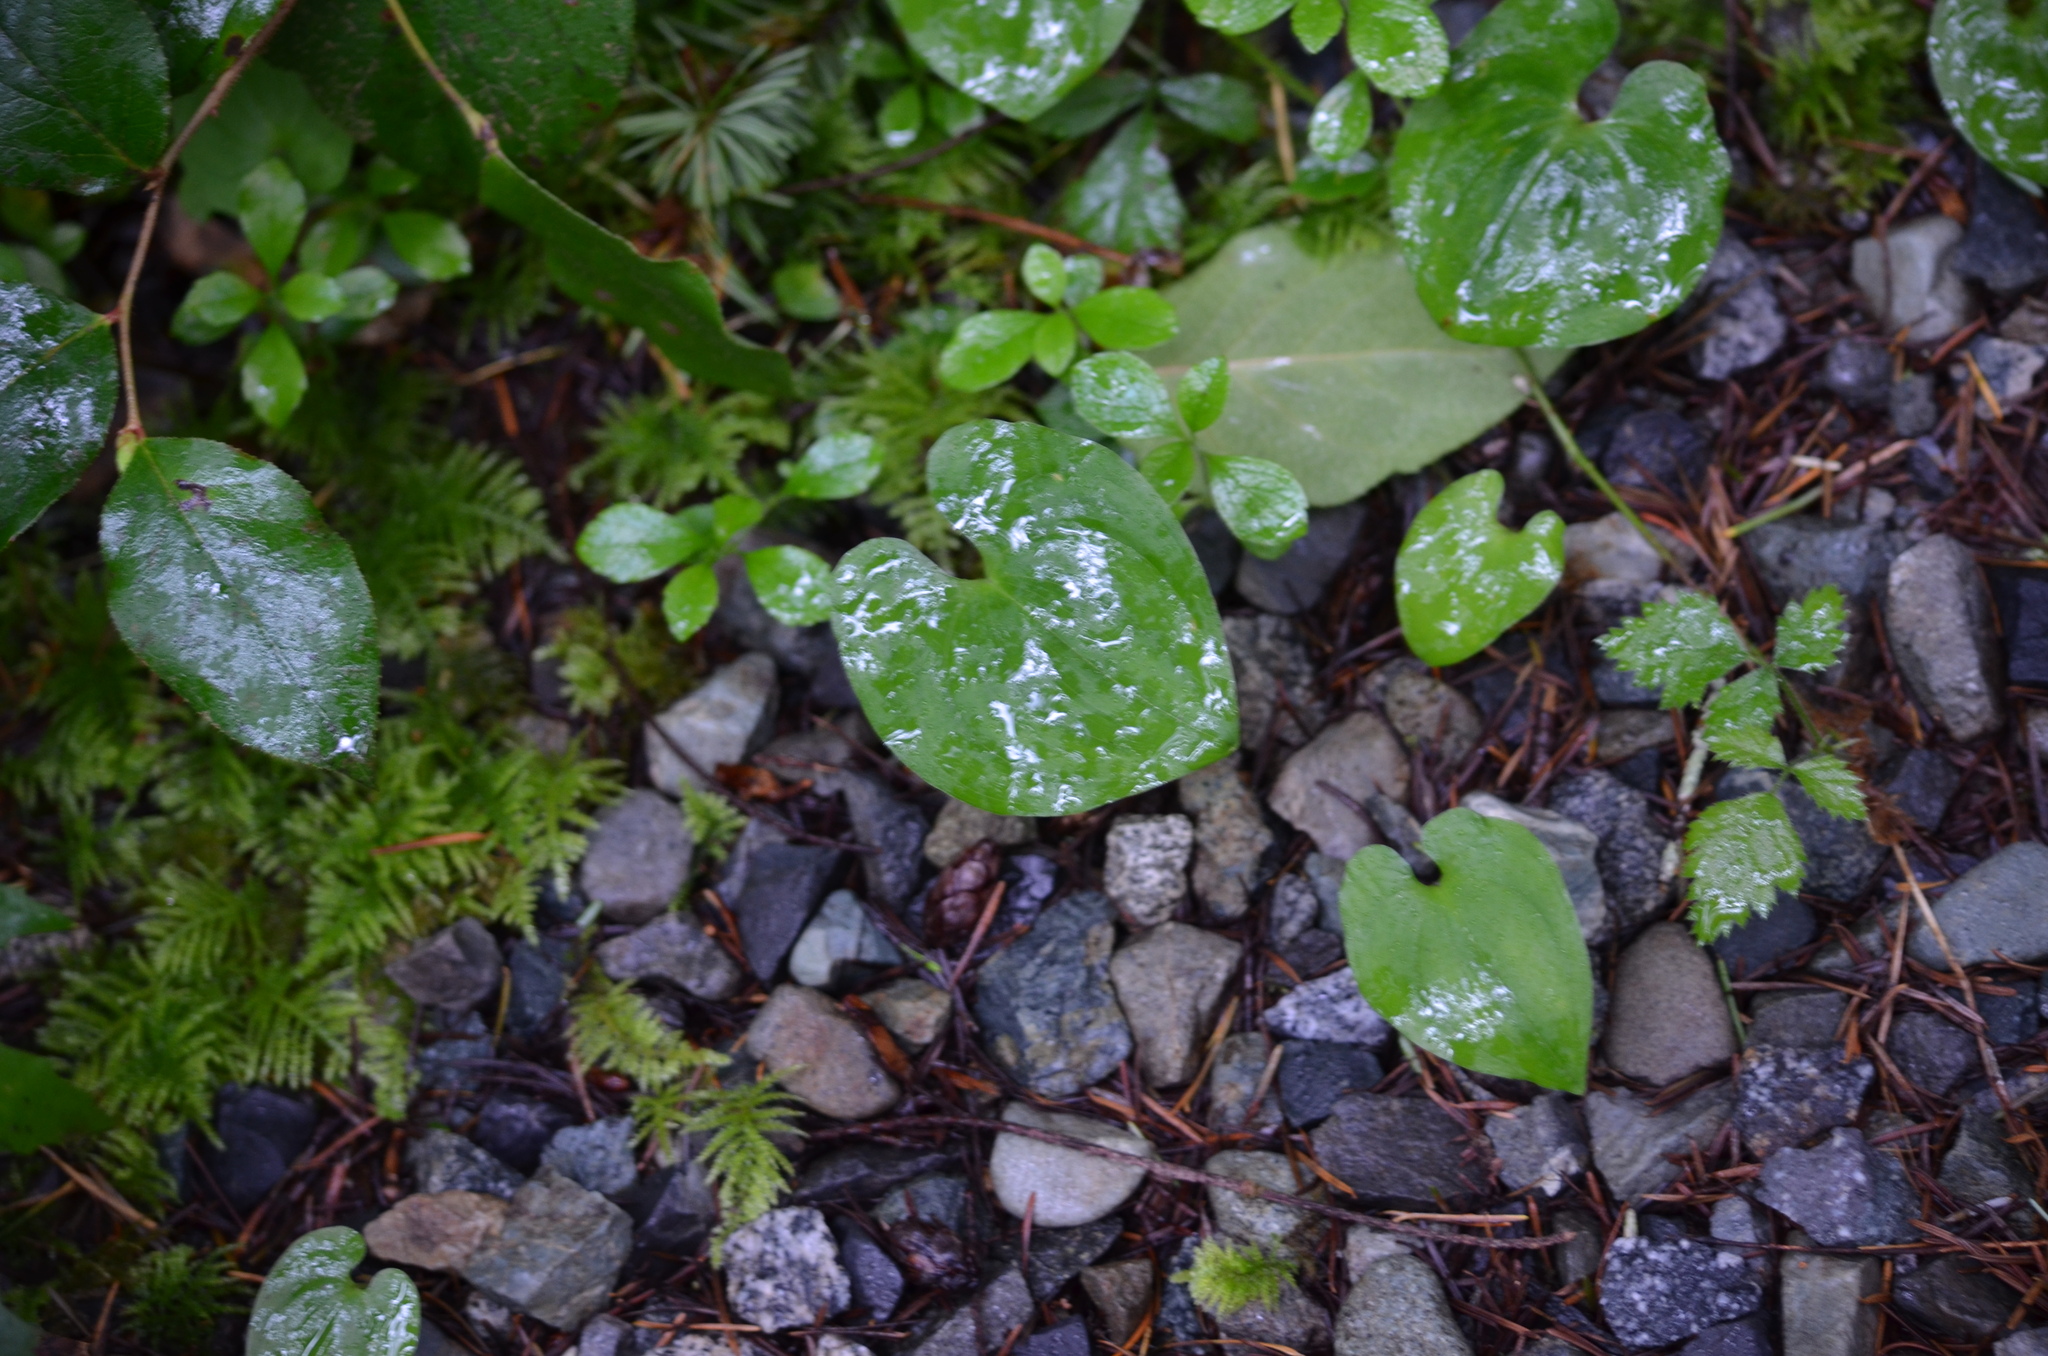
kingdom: Plantae
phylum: Tracheophyta
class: Magnoliopsida
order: Piperales
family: Aristolochiaceae
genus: Asarum
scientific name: Asarum caudatum
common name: Wild ginger
